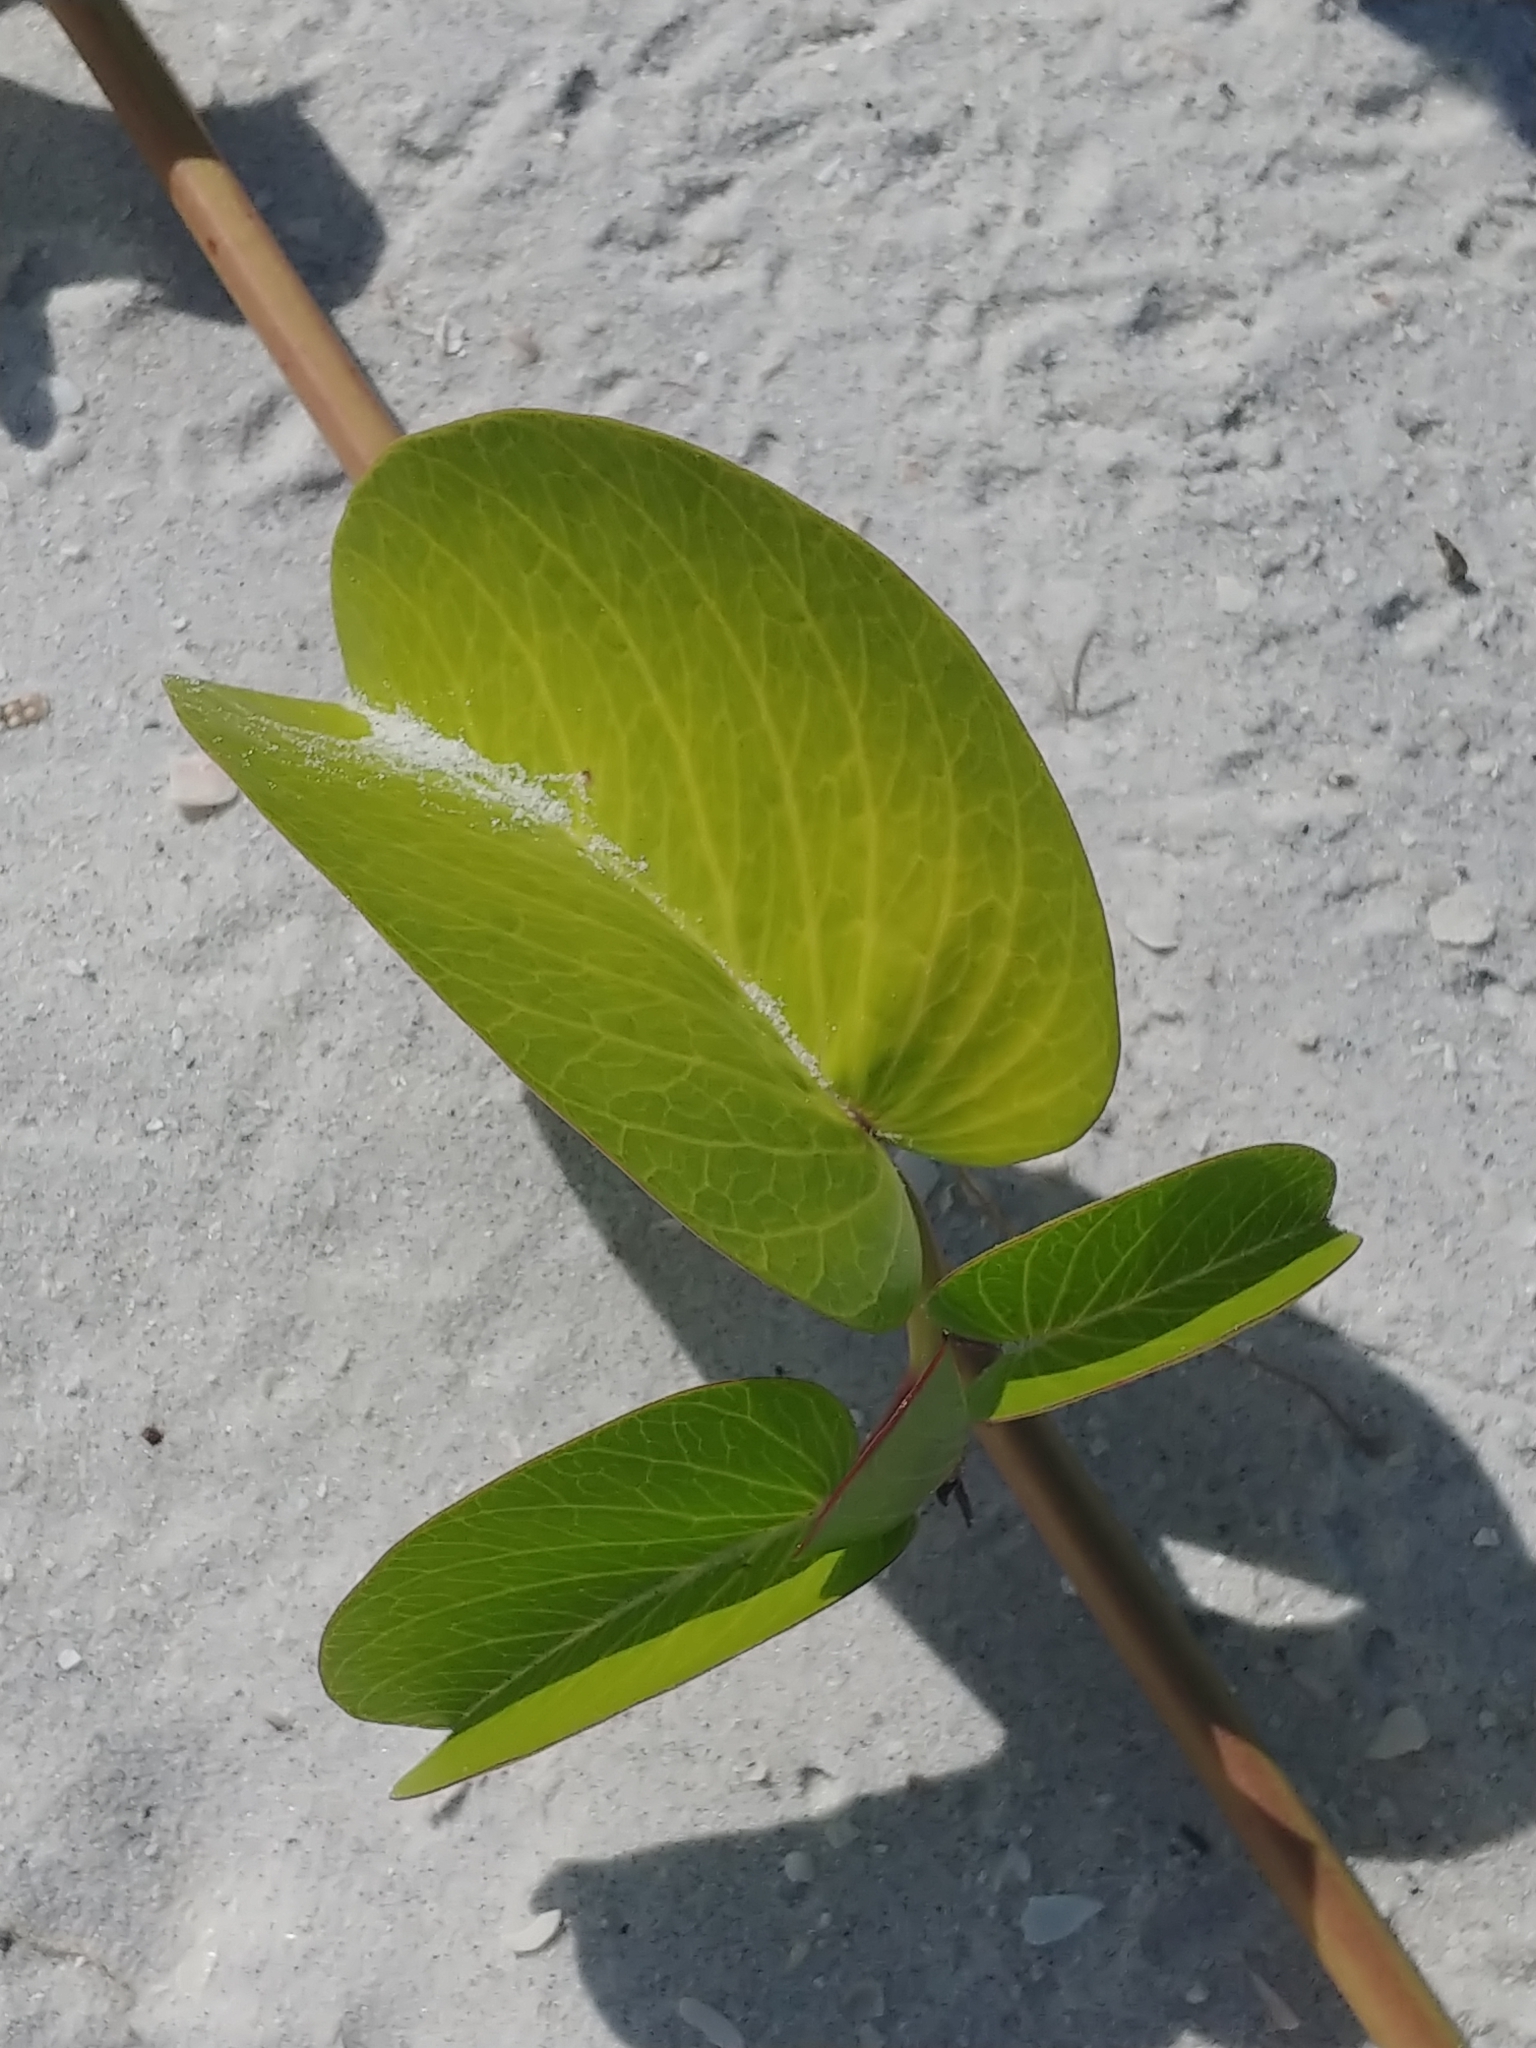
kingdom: Plantae
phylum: Tracheophyta
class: Magnoliopsida
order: Solanales
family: Convolvulaceae
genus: Ipomoea
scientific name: Ipomoea pes-caprae
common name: Beach morning glory
